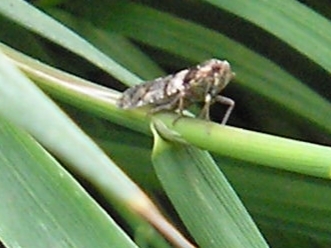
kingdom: Animalia
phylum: Arthropoda
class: Insecta
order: Hemiptera
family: Cixiidae
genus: Cixius
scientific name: Cixius nervosus
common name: Common lacehopper
